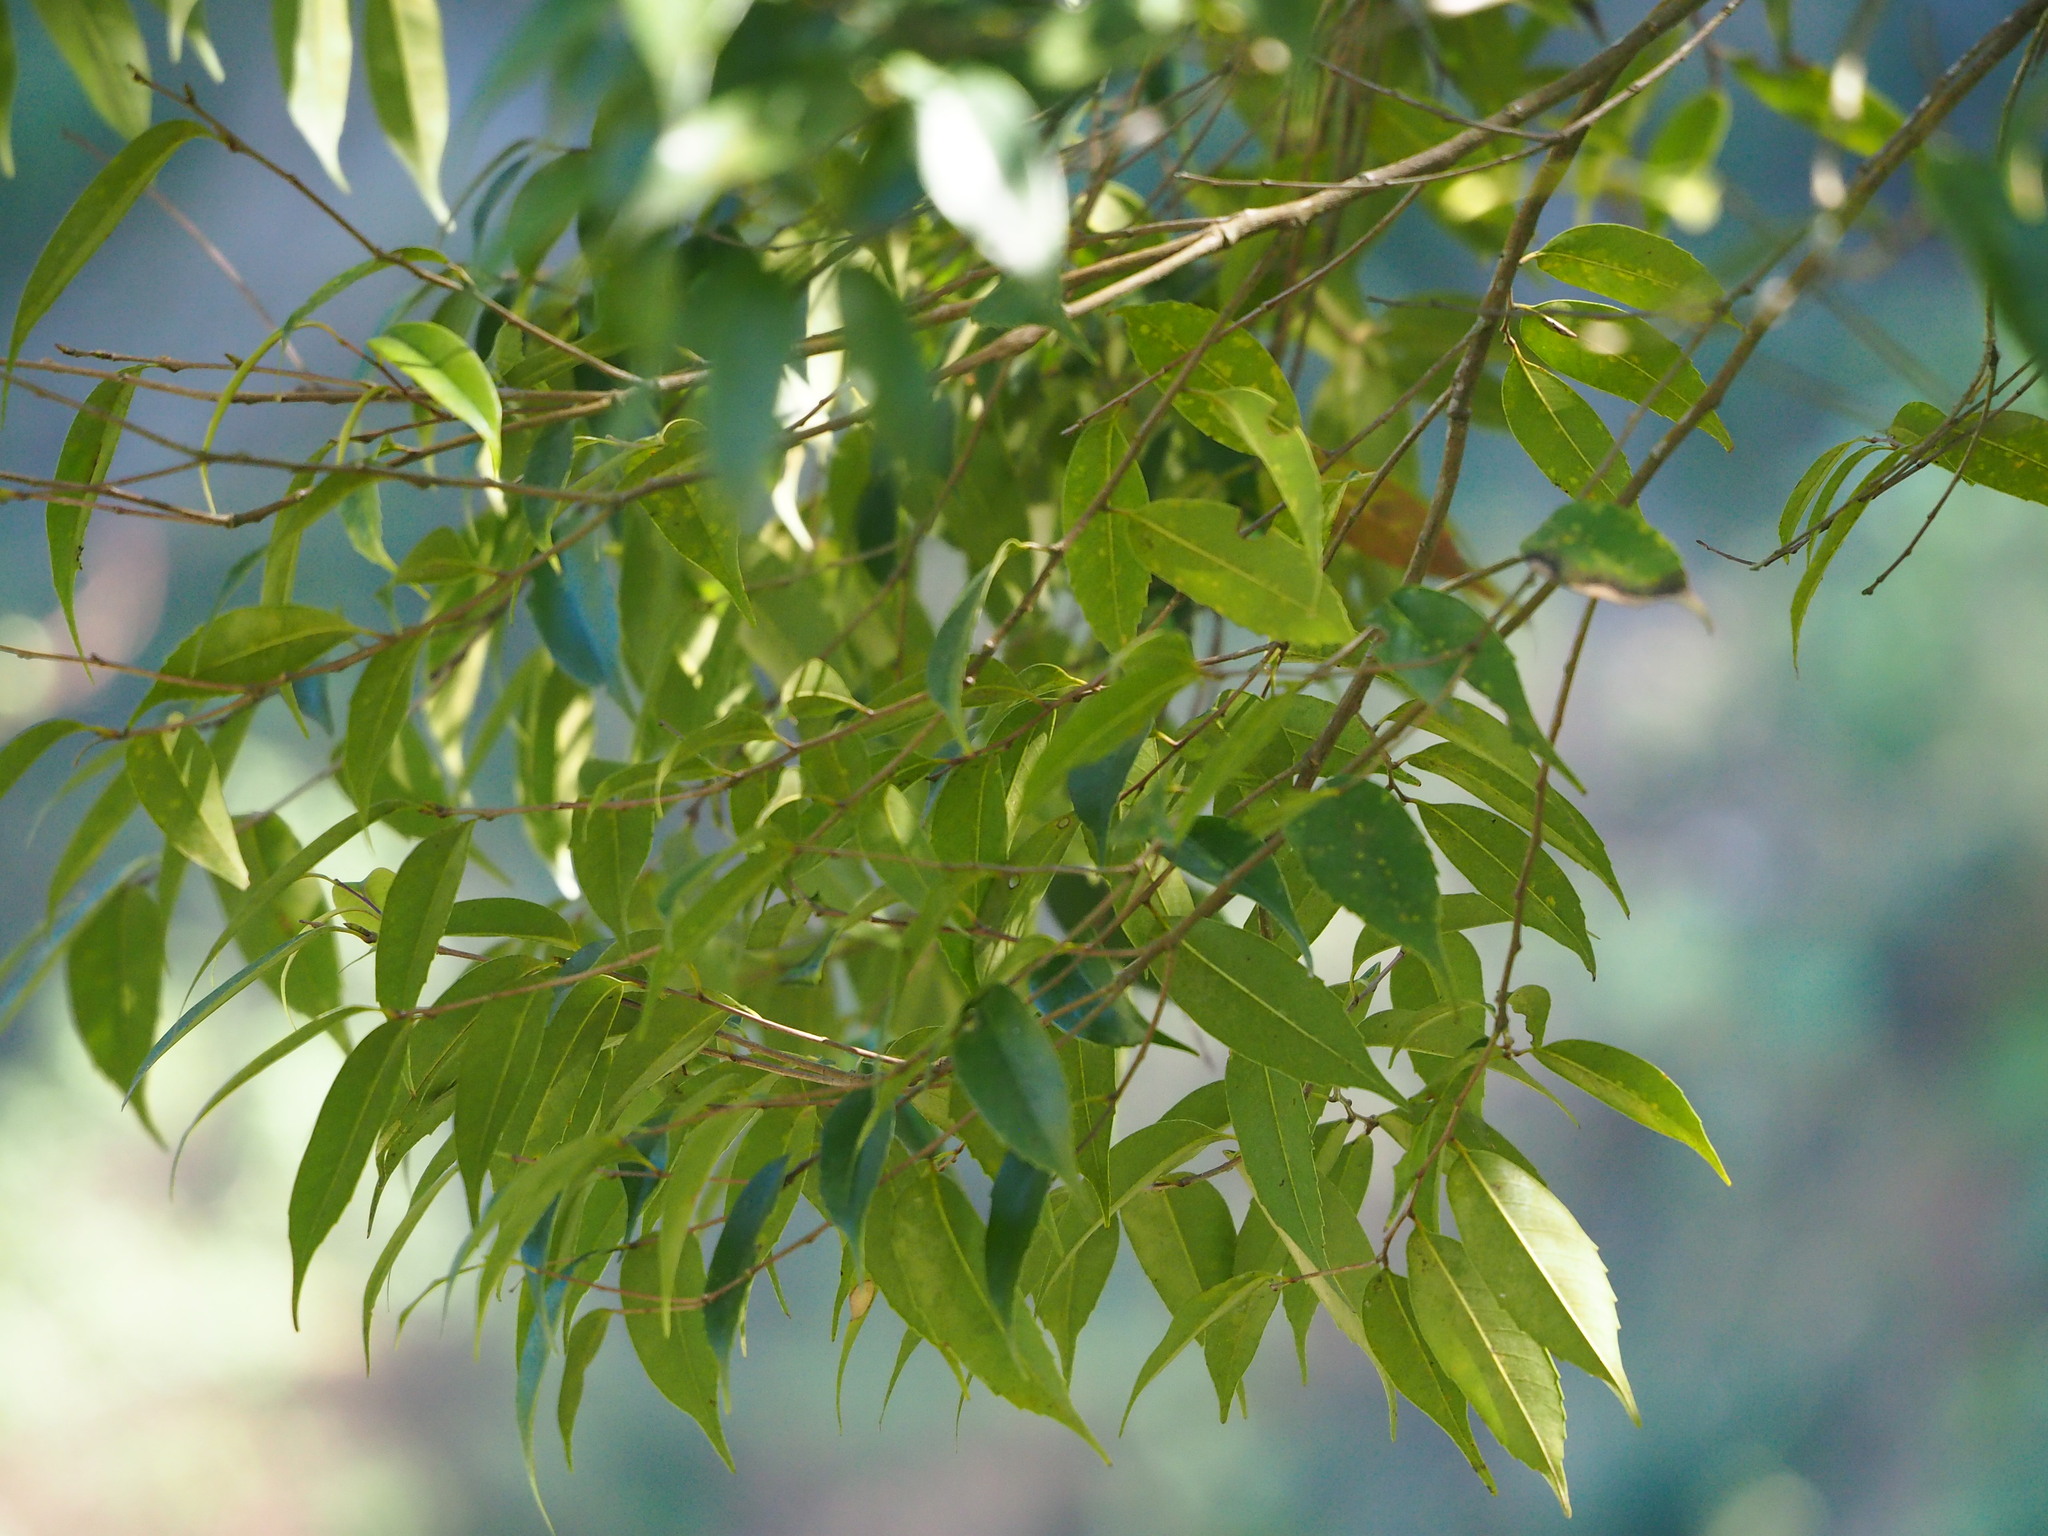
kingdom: Plantae
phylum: Tracheophyta
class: Magnoliopsida
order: Fagales
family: Fagaceae
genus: Lithocarpus
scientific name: Lithocarpus uraianus
